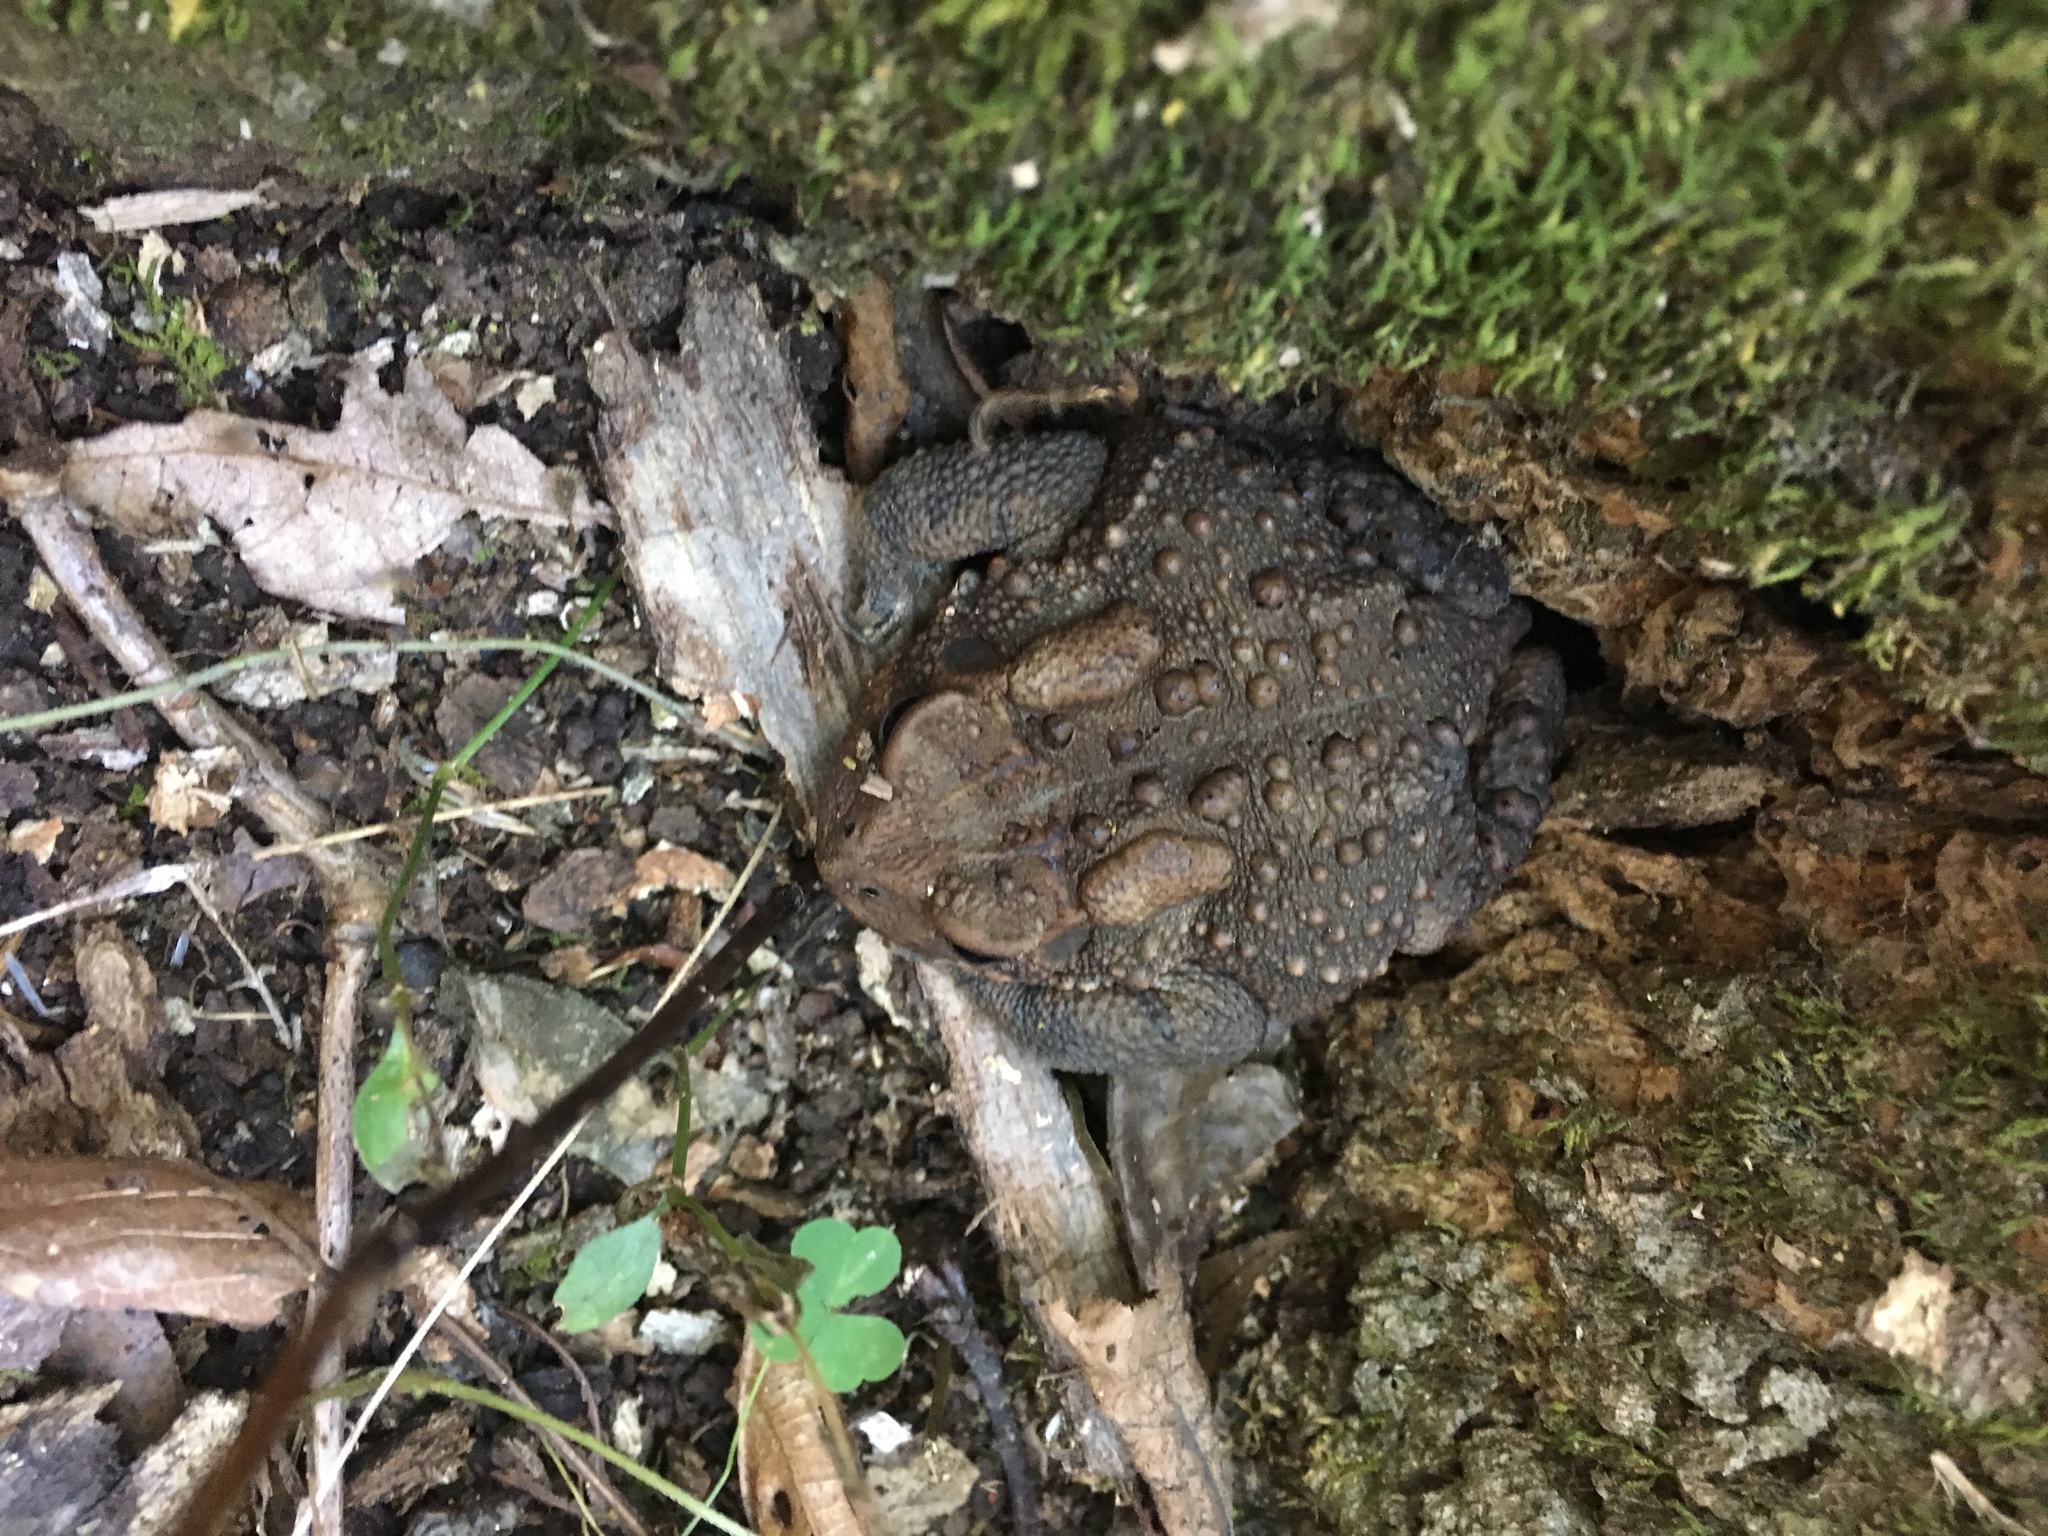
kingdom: Animalia
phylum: Chordata
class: Amphibia
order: Anura
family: Bufonidae
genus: Anaxyrus
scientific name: Anaxyrus americanus
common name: American toad
